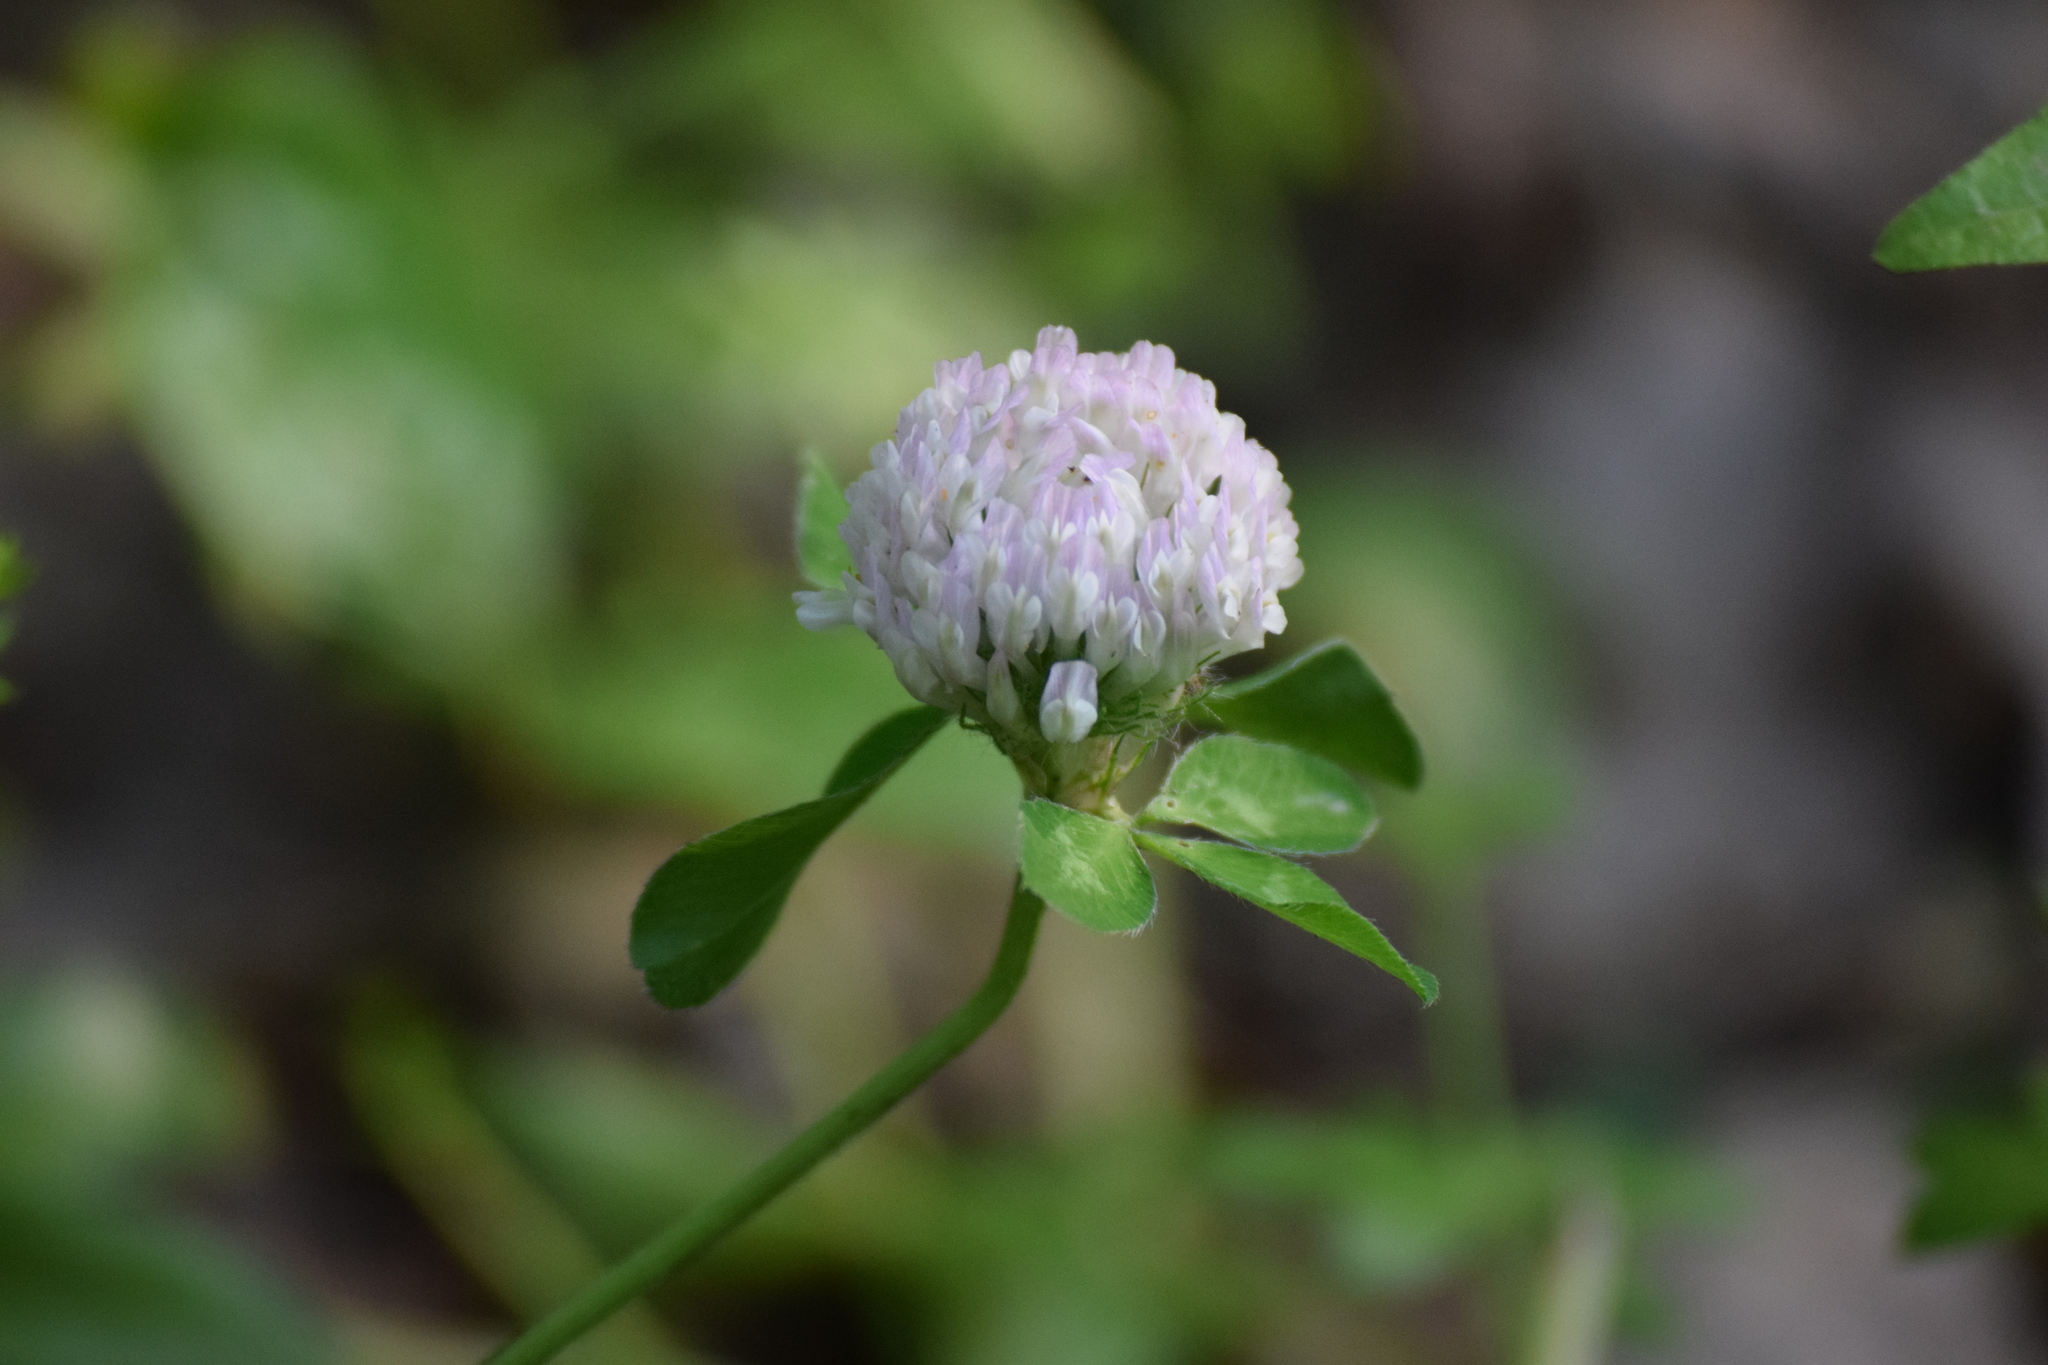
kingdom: Plantae
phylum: Tracheophyta
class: Magnoliopsida
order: Fabales
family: Fabaceae
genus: Trifolium
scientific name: Trifolium pratense
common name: Red clover
